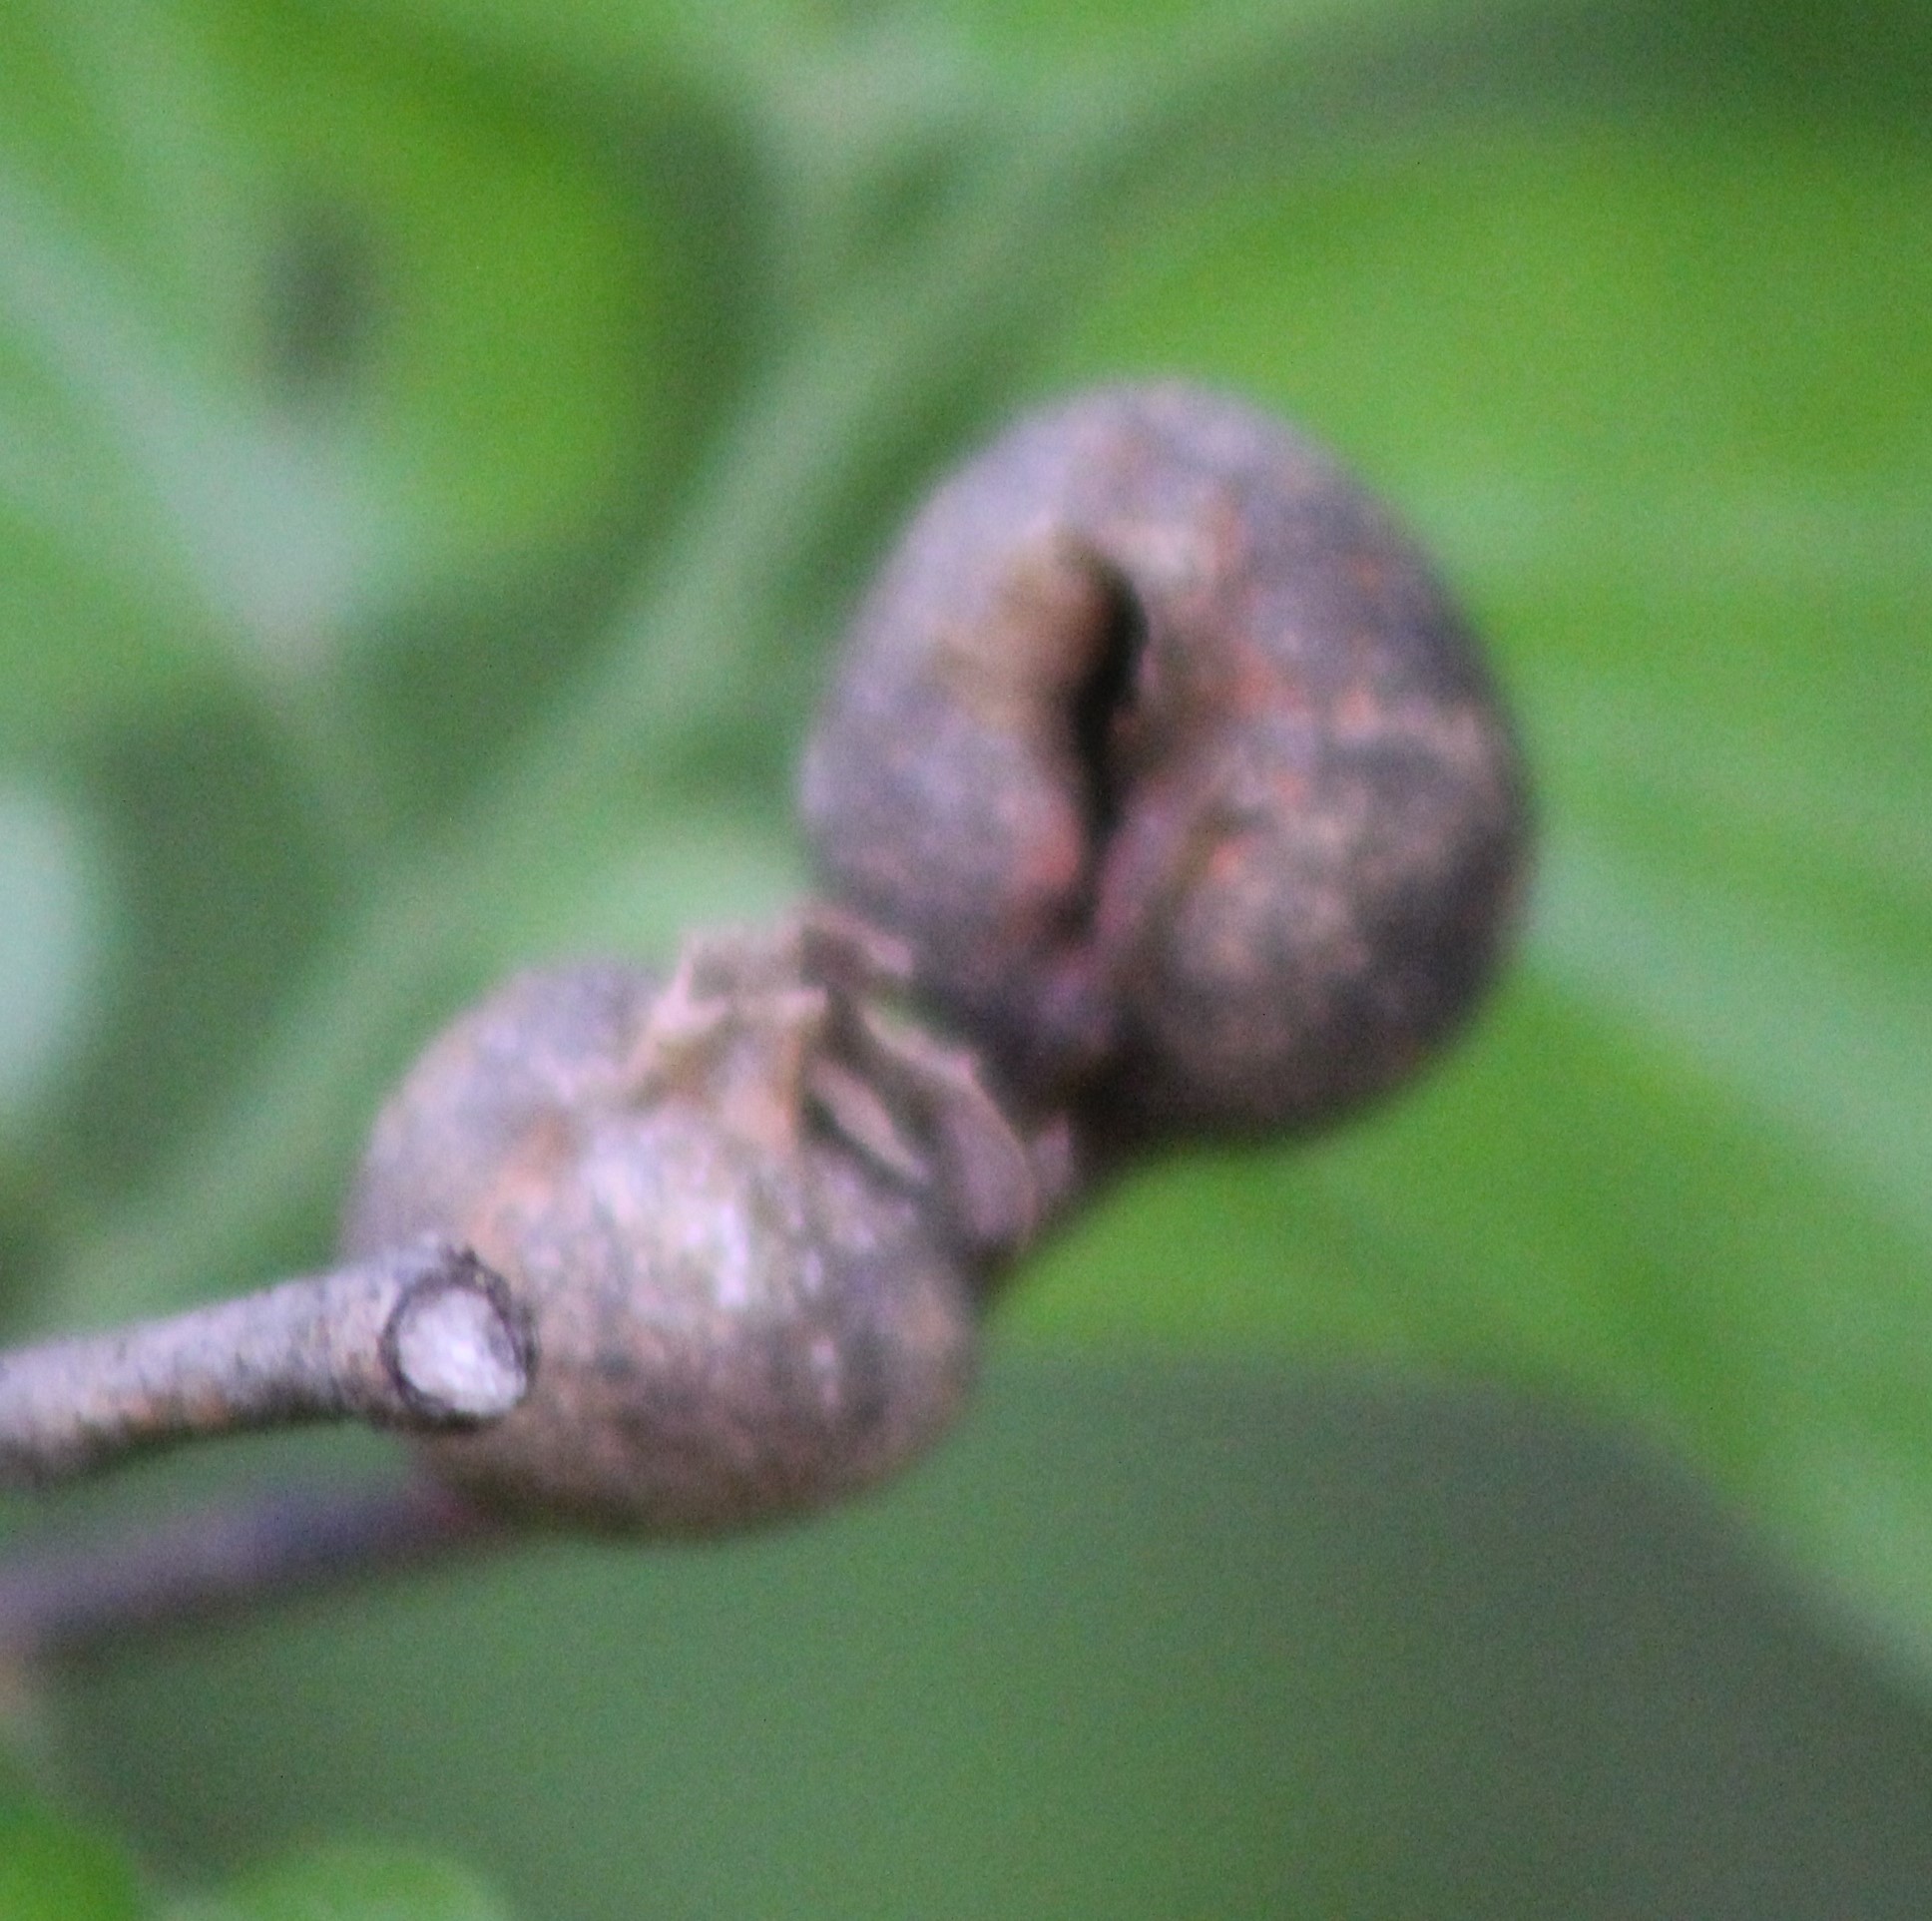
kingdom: Animalia
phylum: Arthropoda
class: Insecta
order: Hemiptera
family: Aphalaridae
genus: Pachypsylla
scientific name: Pachypsylla venusta
